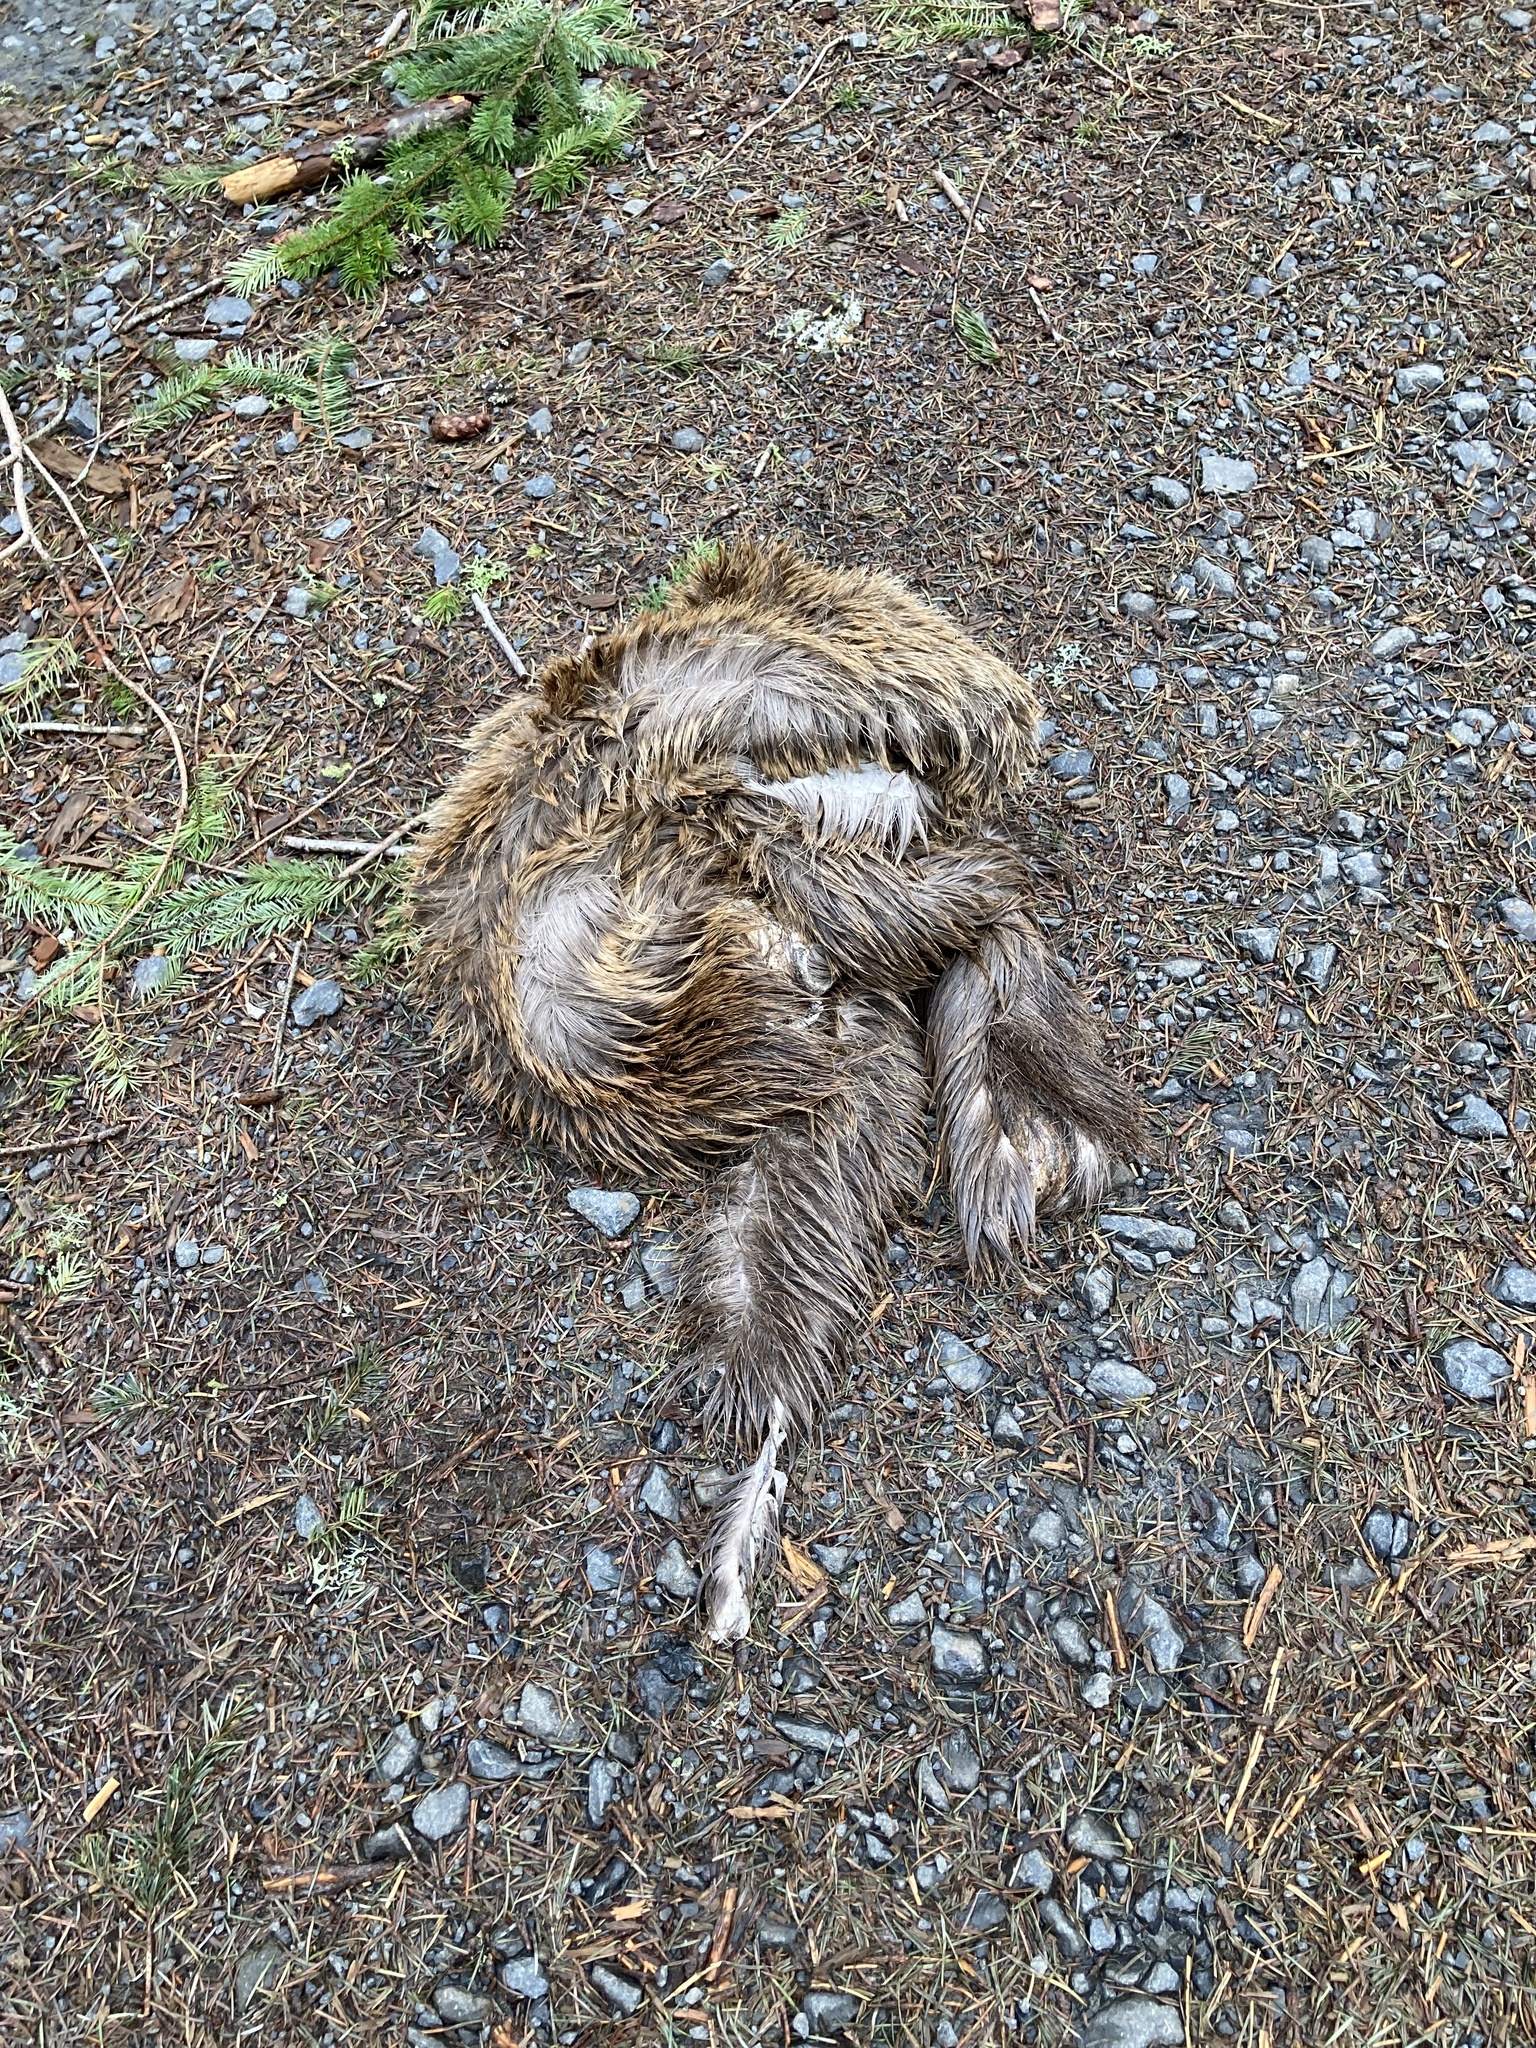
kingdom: Animalia
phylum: Chordata
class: Mammalia
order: Artiodactyla
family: Cervidae
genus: Cervus
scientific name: Cervus elaphus
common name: Red deer
